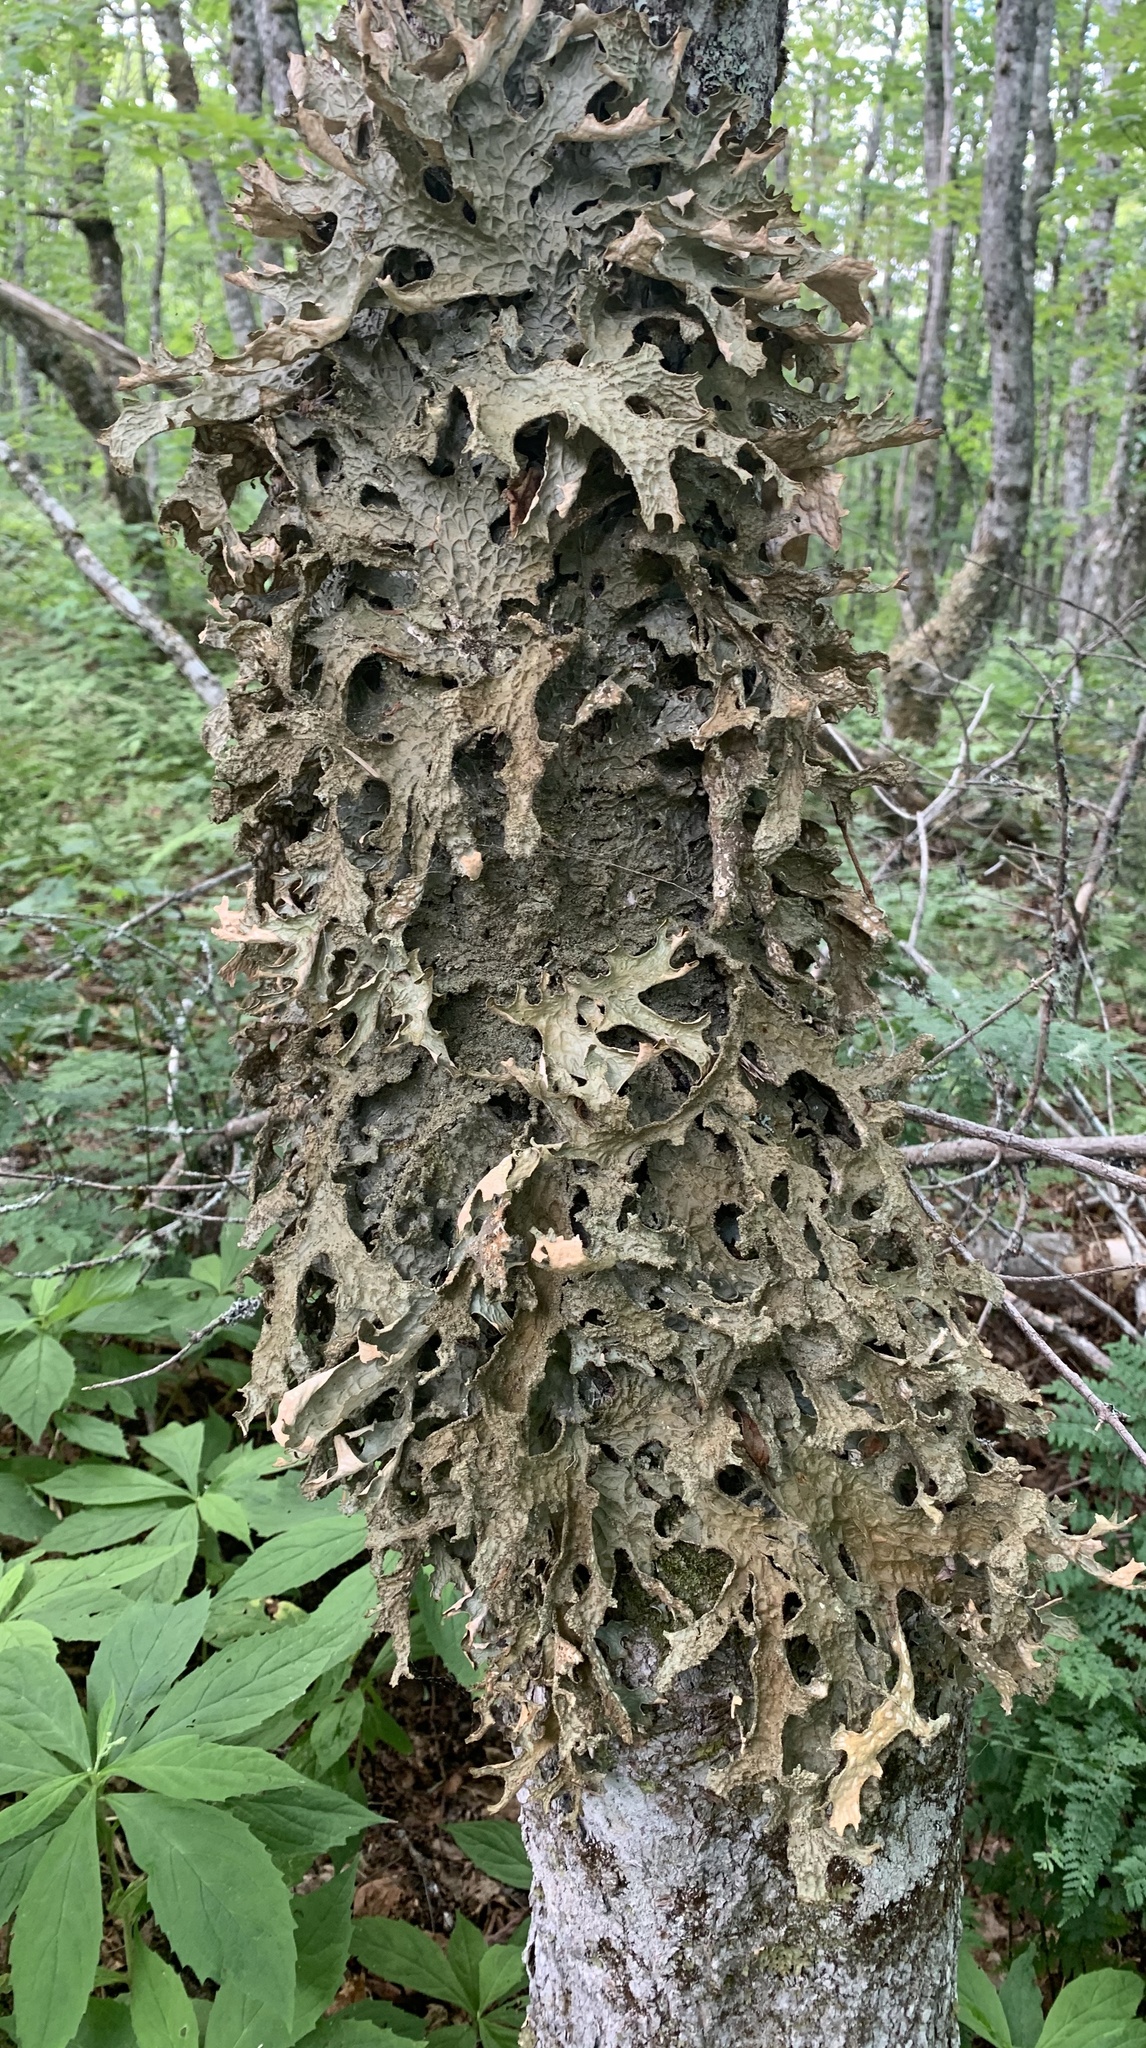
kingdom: Fungi
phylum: Ascomycota
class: Lecanoromycetes
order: Peltigerales
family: Lobariaceae
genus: Lobaria
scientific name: Lobaria pulmonaria
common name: Lungwort
